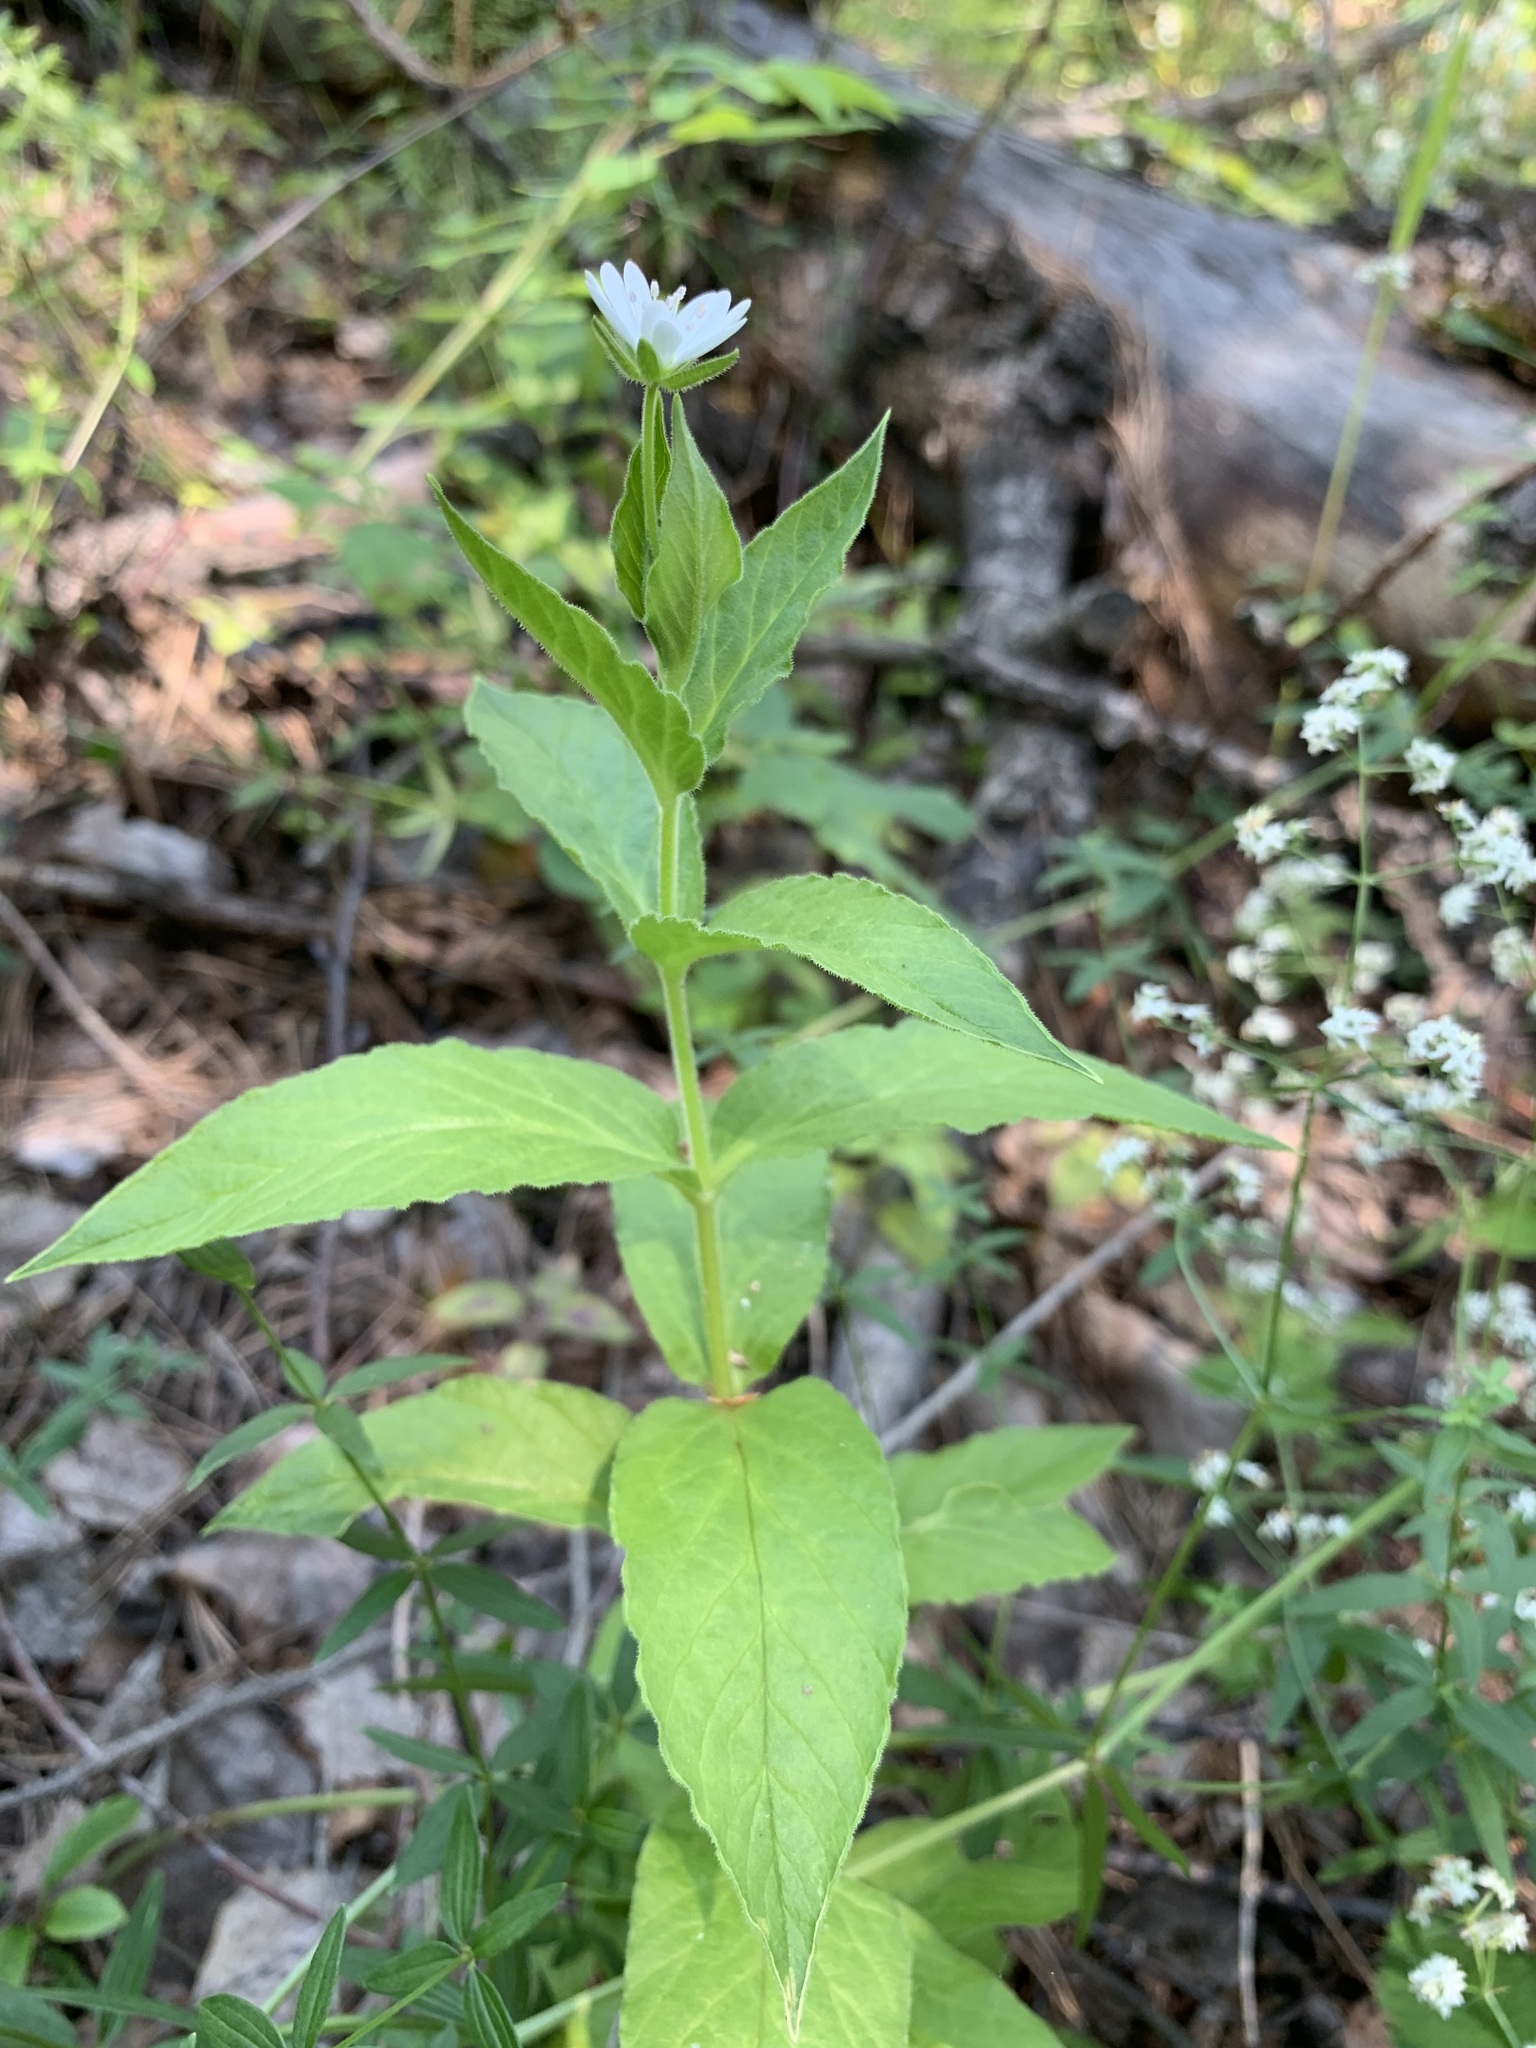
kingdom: Plantae
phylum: Tracheophyta
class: Magnoliopsida
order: Caryophyllales
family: Caryophyllaceae
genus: Stellaria
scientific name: Stellaria bungeana
